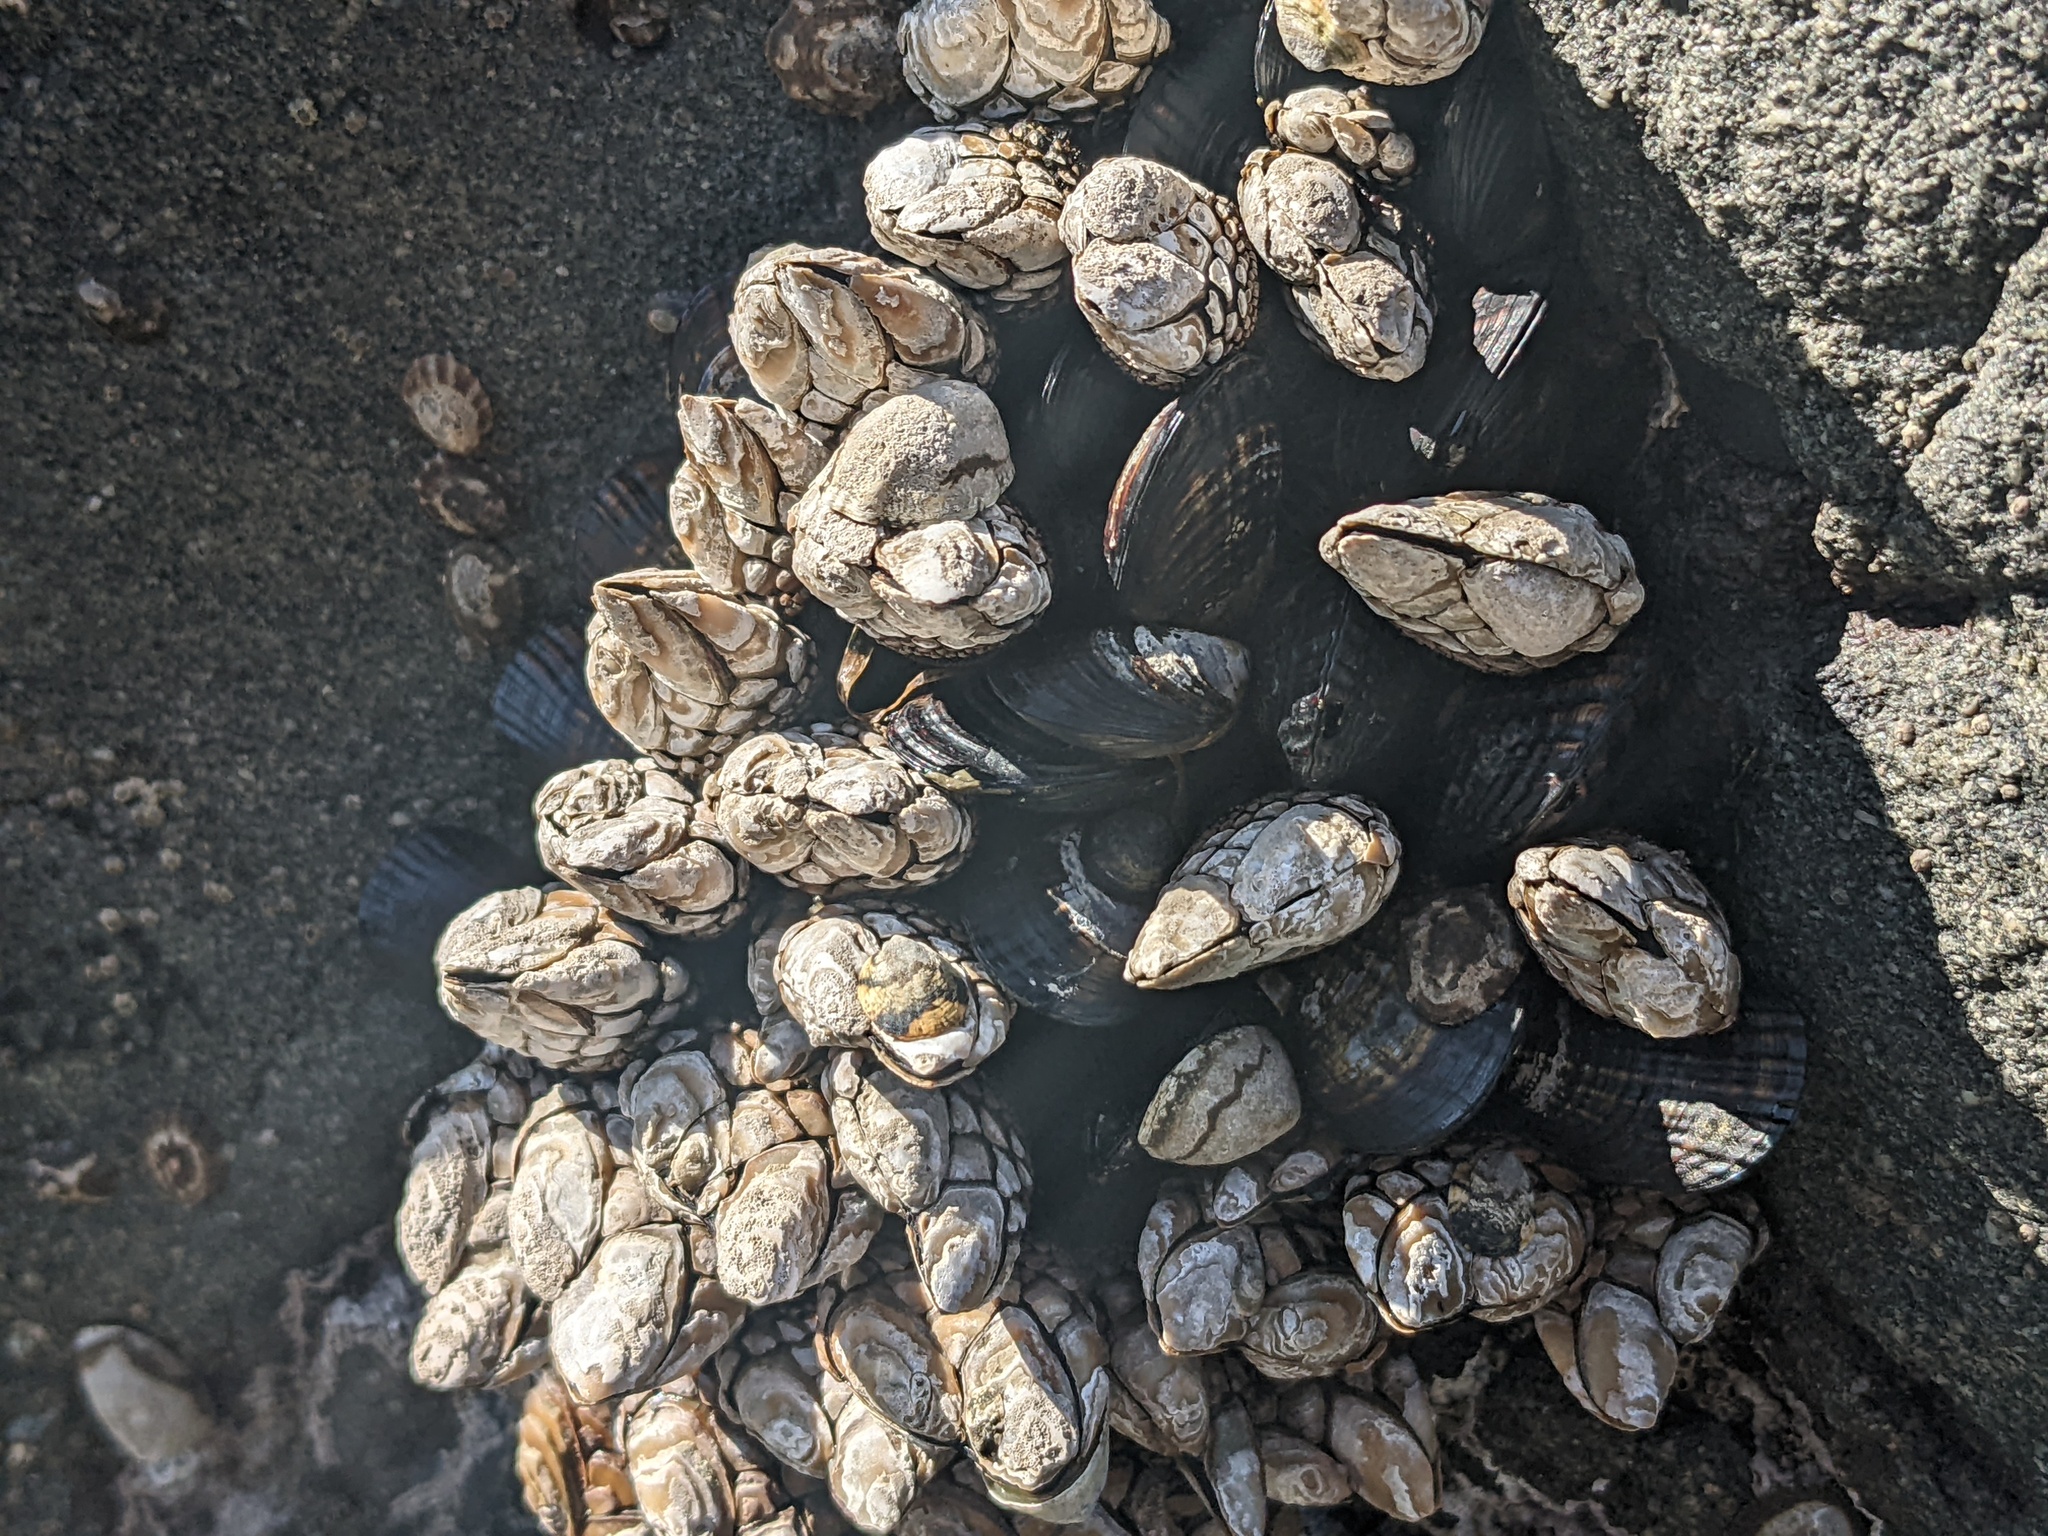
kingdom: Animalia
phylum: Arthropoda
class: Maxillopoda
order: Pedunculata
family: Pollicipedidae
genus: Pollicipes
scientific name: Pollicipes polymerus
